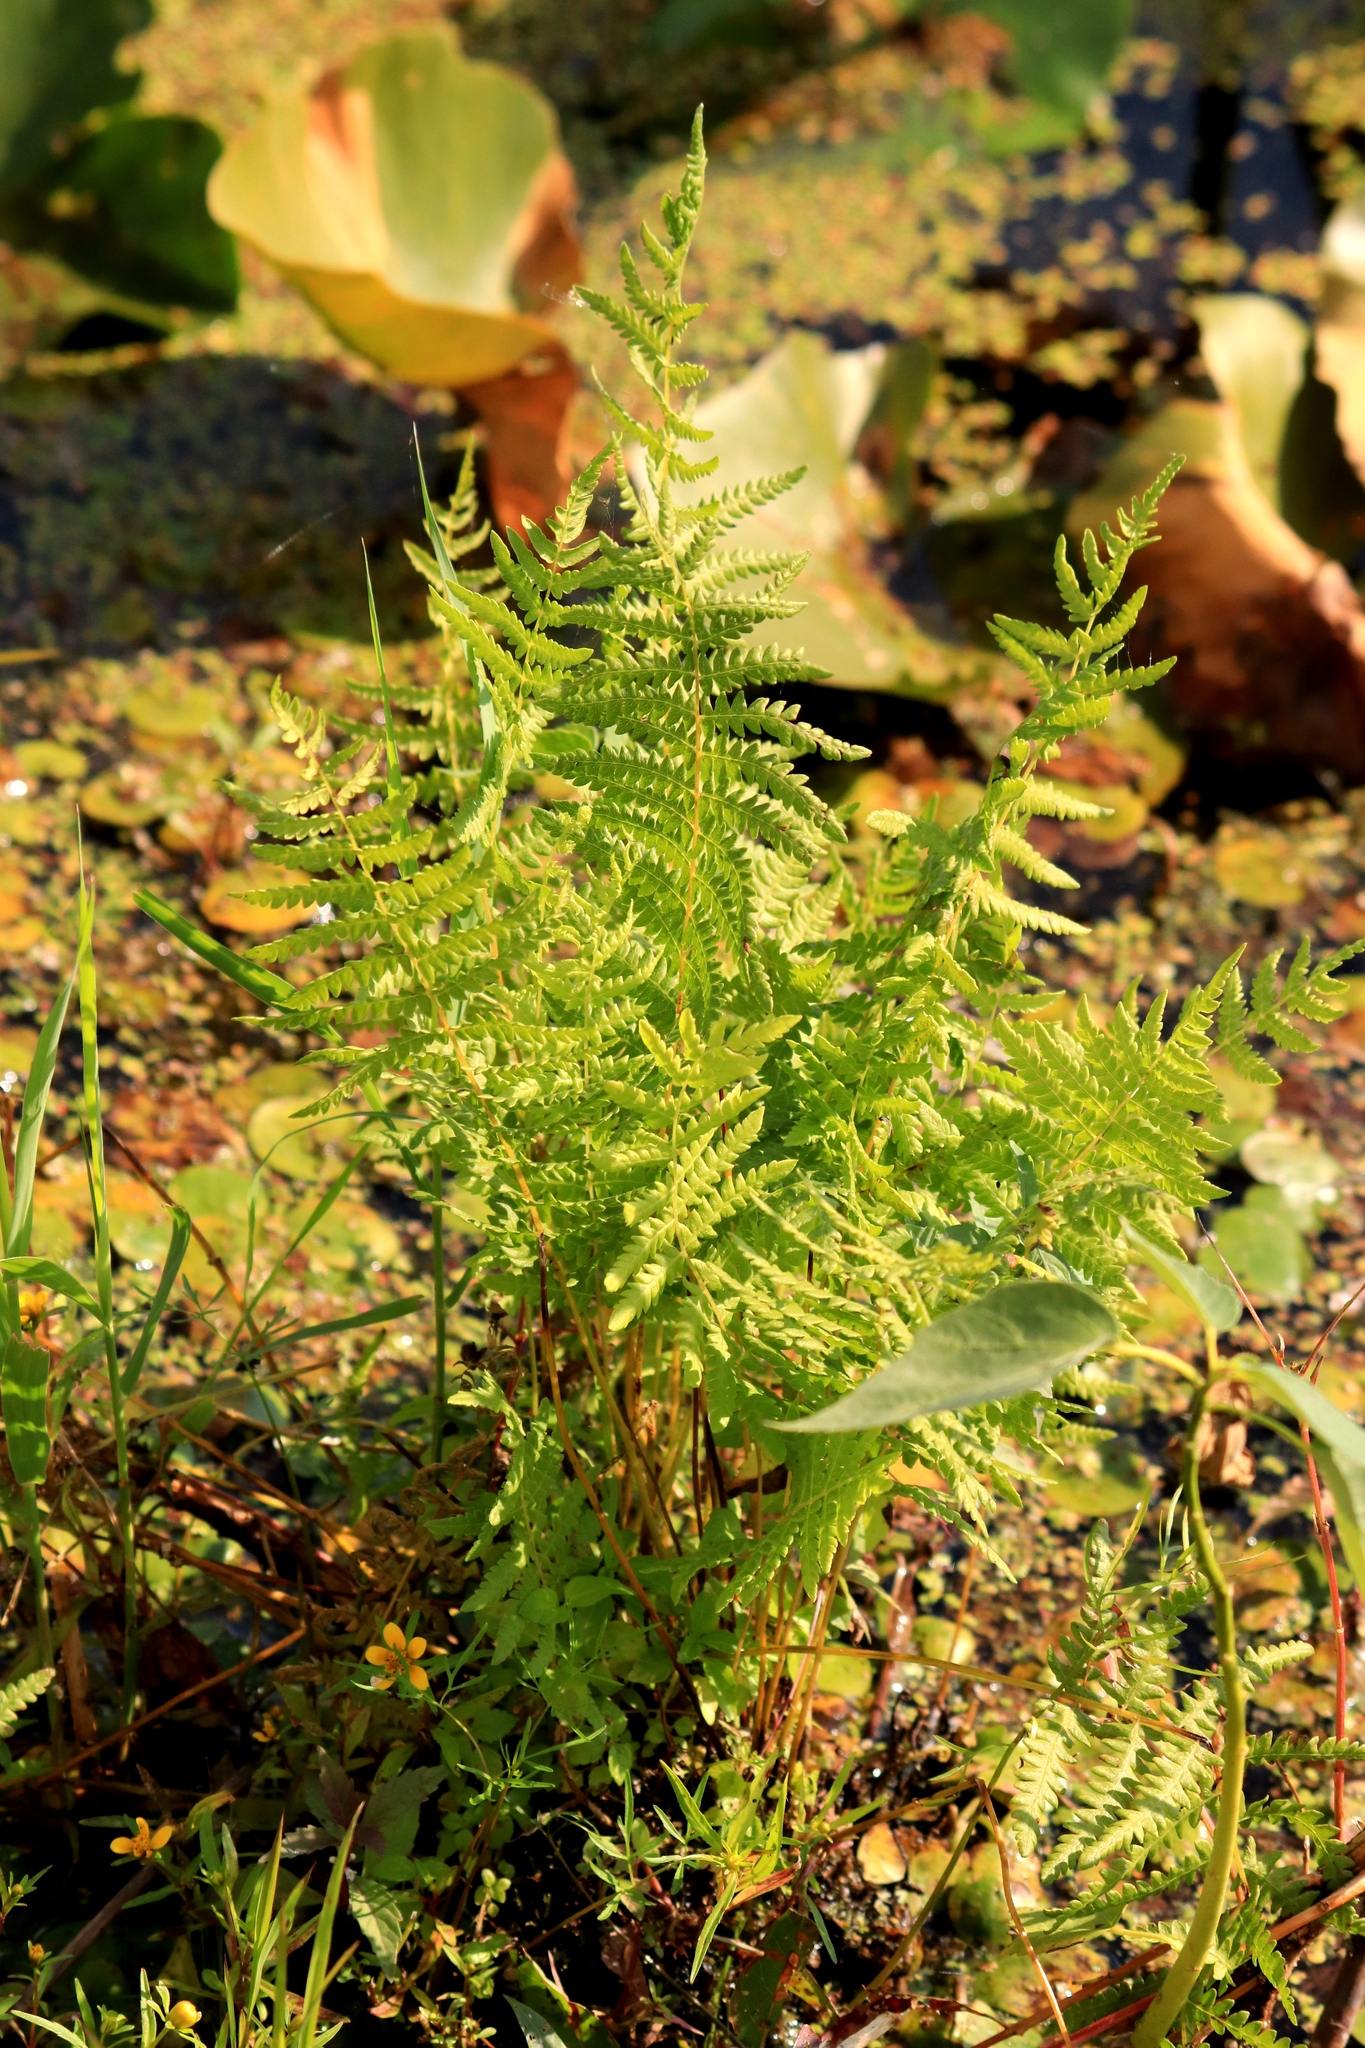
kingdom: Plantae
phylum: Tracheophyta
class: Polypodiopsida
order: Polypodiales
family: Thelypteridaceae
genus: Thelypteris
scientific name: Thelypteris palustris
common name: Marsh fern
